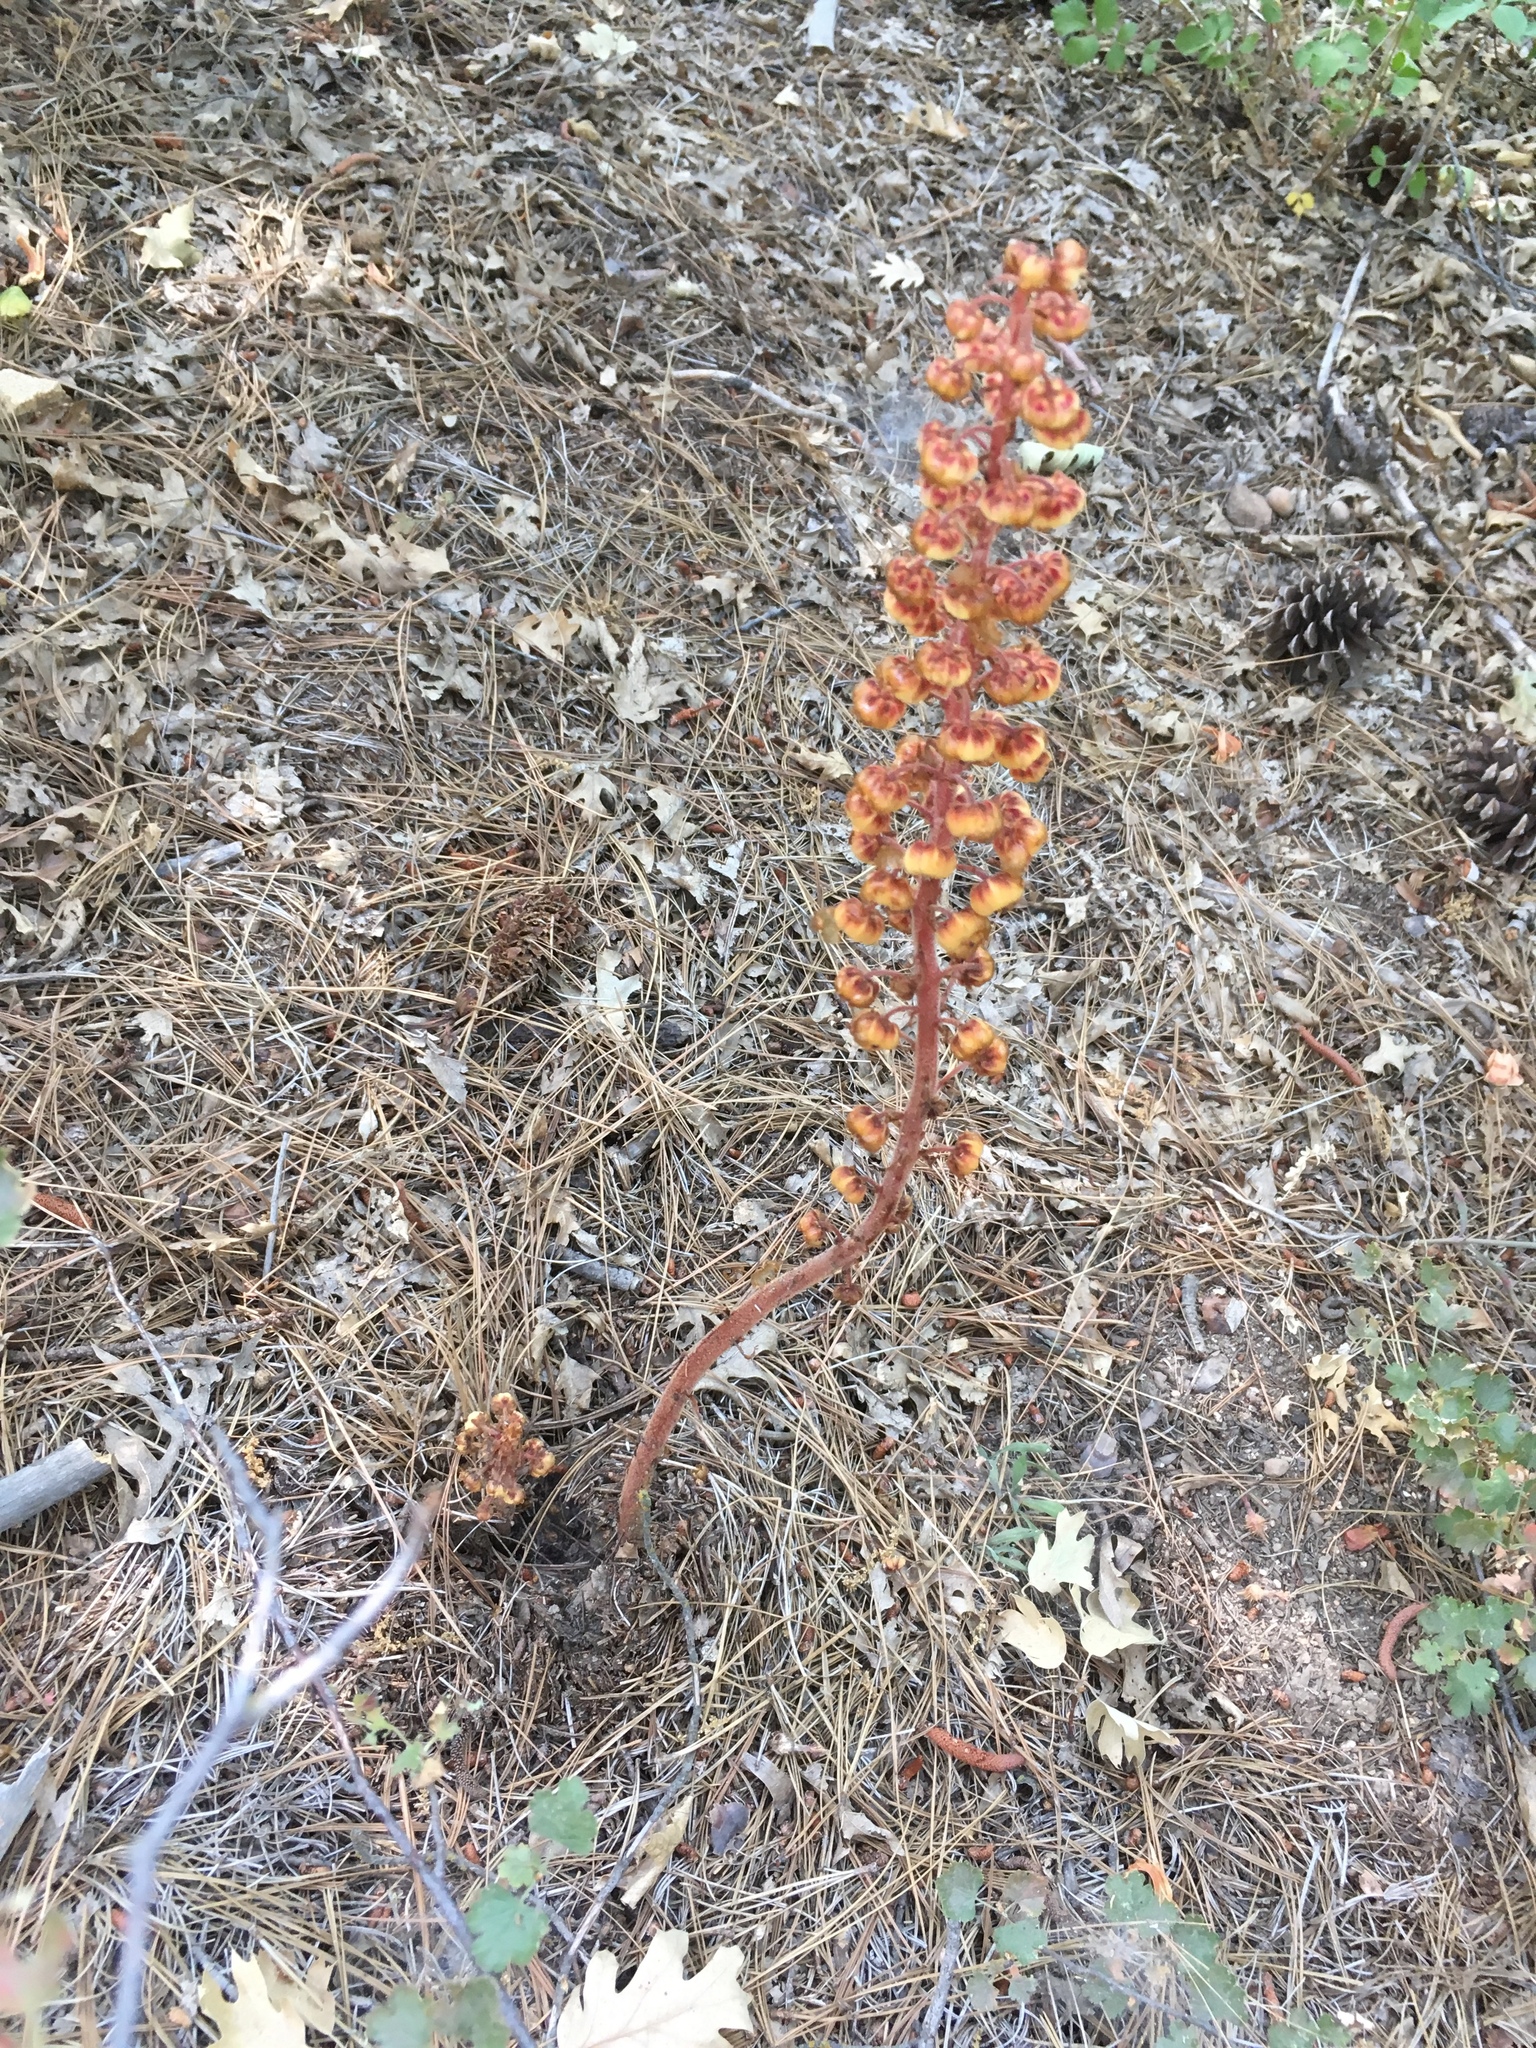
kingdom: Plantae
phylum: Tracheophyta
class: Magnoliopsida
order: Ericales
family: Ericaceae
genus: Pterospora
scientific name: Pterospora andromedea
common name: Giant bird's-nest
